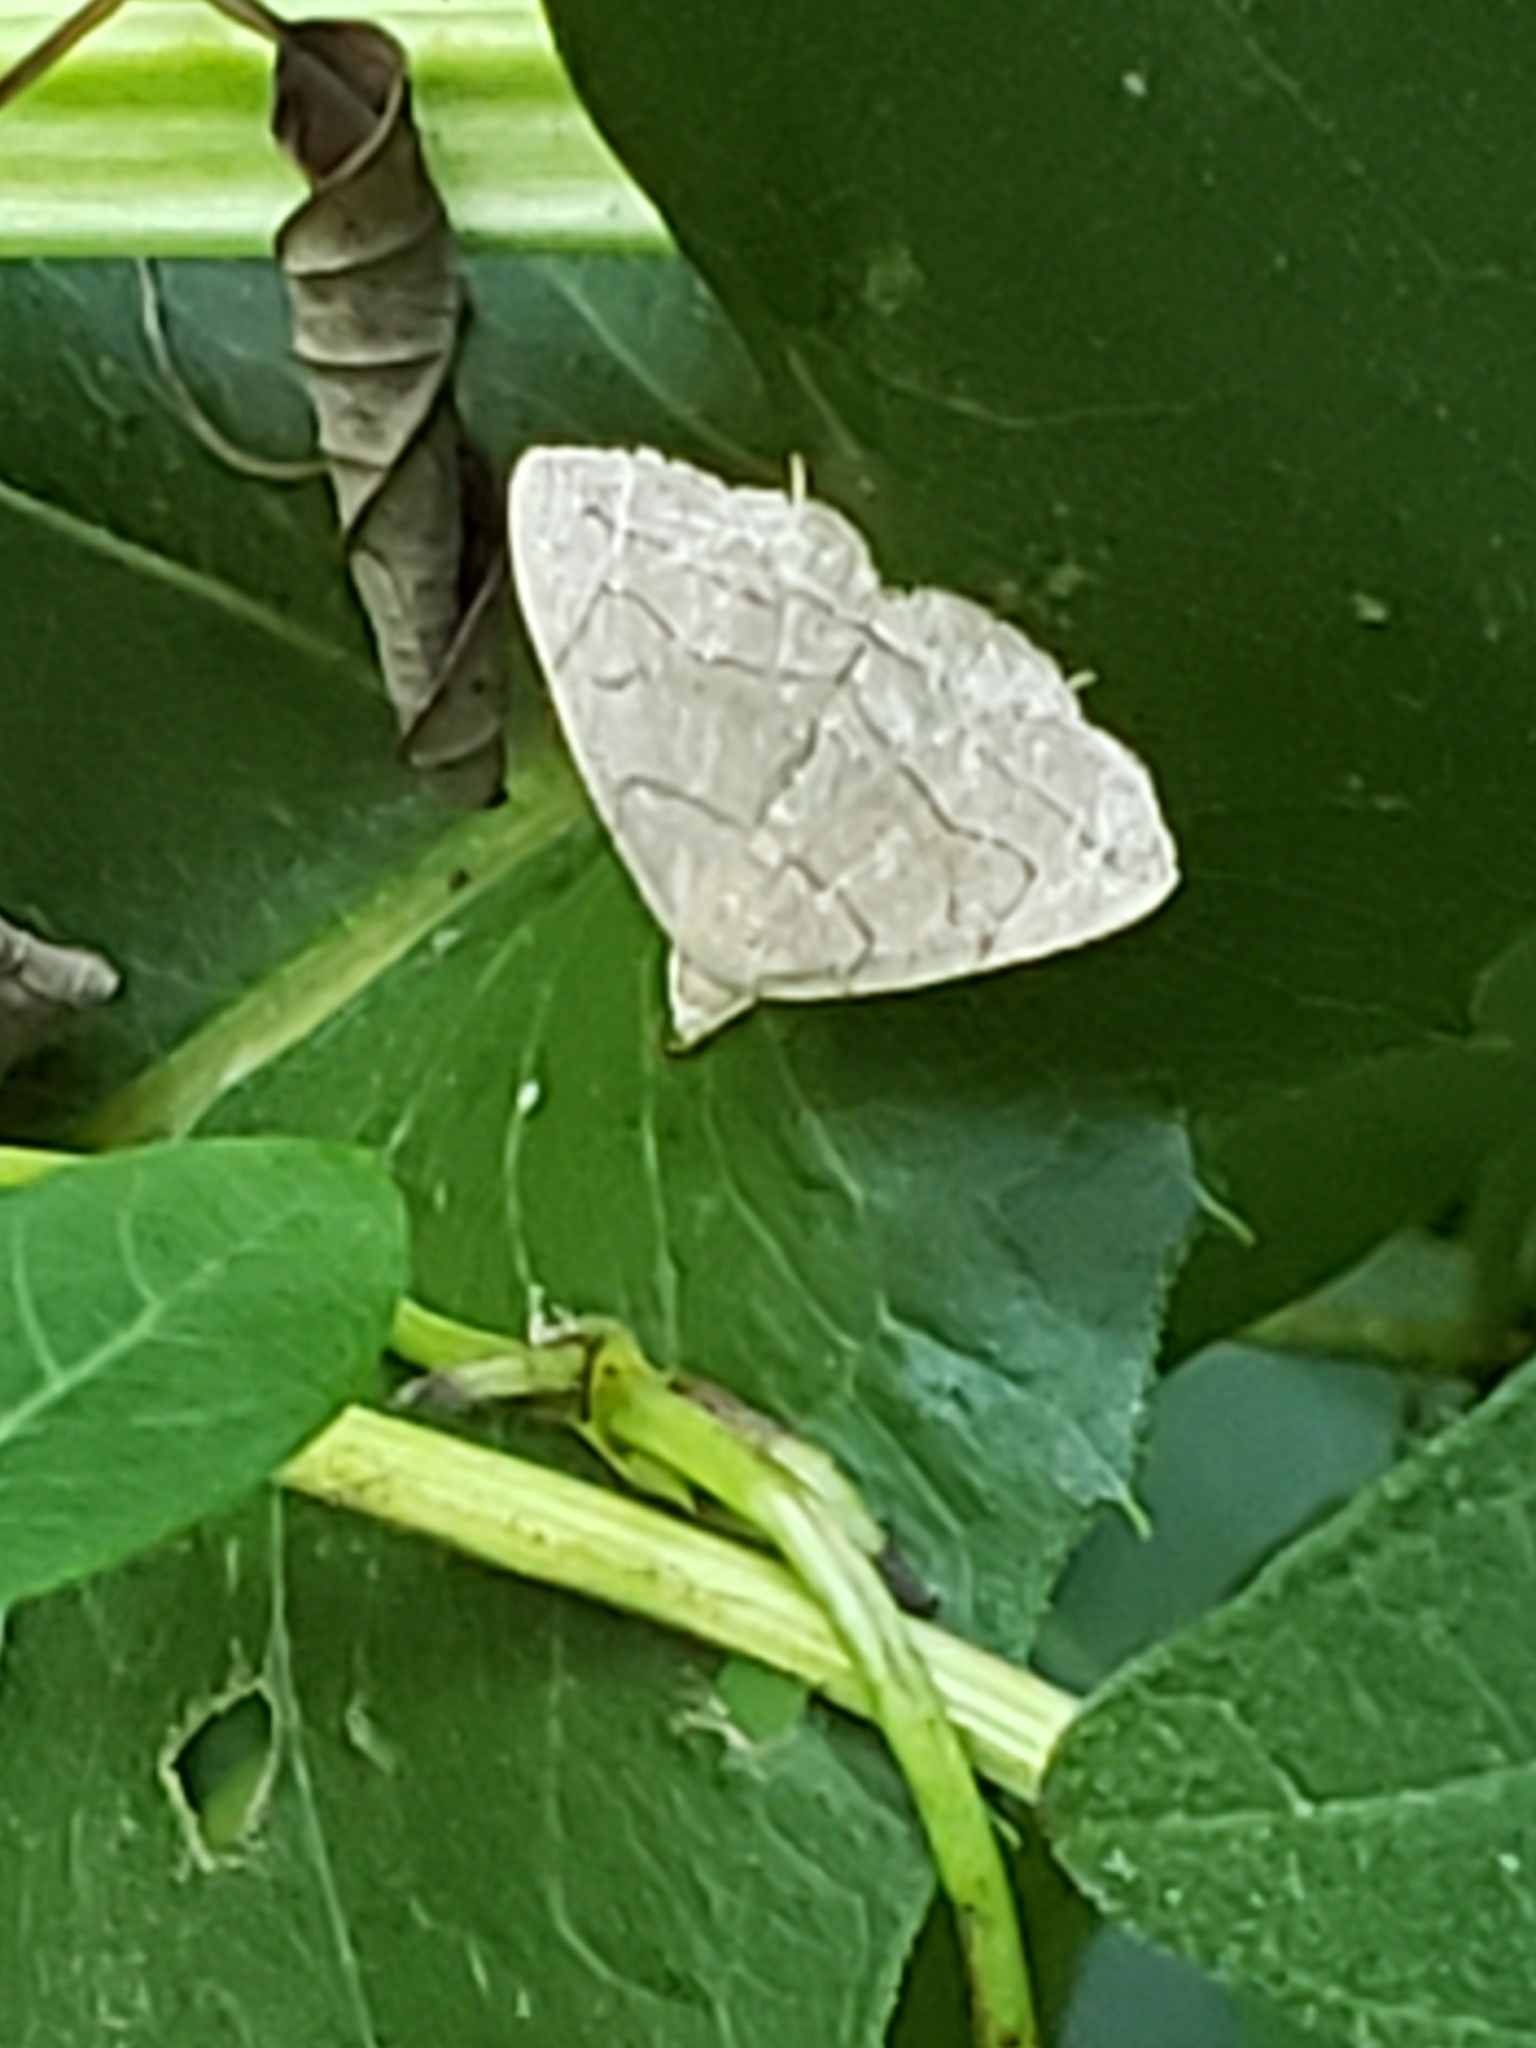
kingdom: Animalia
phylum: Arthropoda
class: Insecta
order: Lepidoptera
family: Erebidae
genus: Zanclognatha
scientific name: Zanclognatha pedipilalis
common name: Grayish fan-foot
